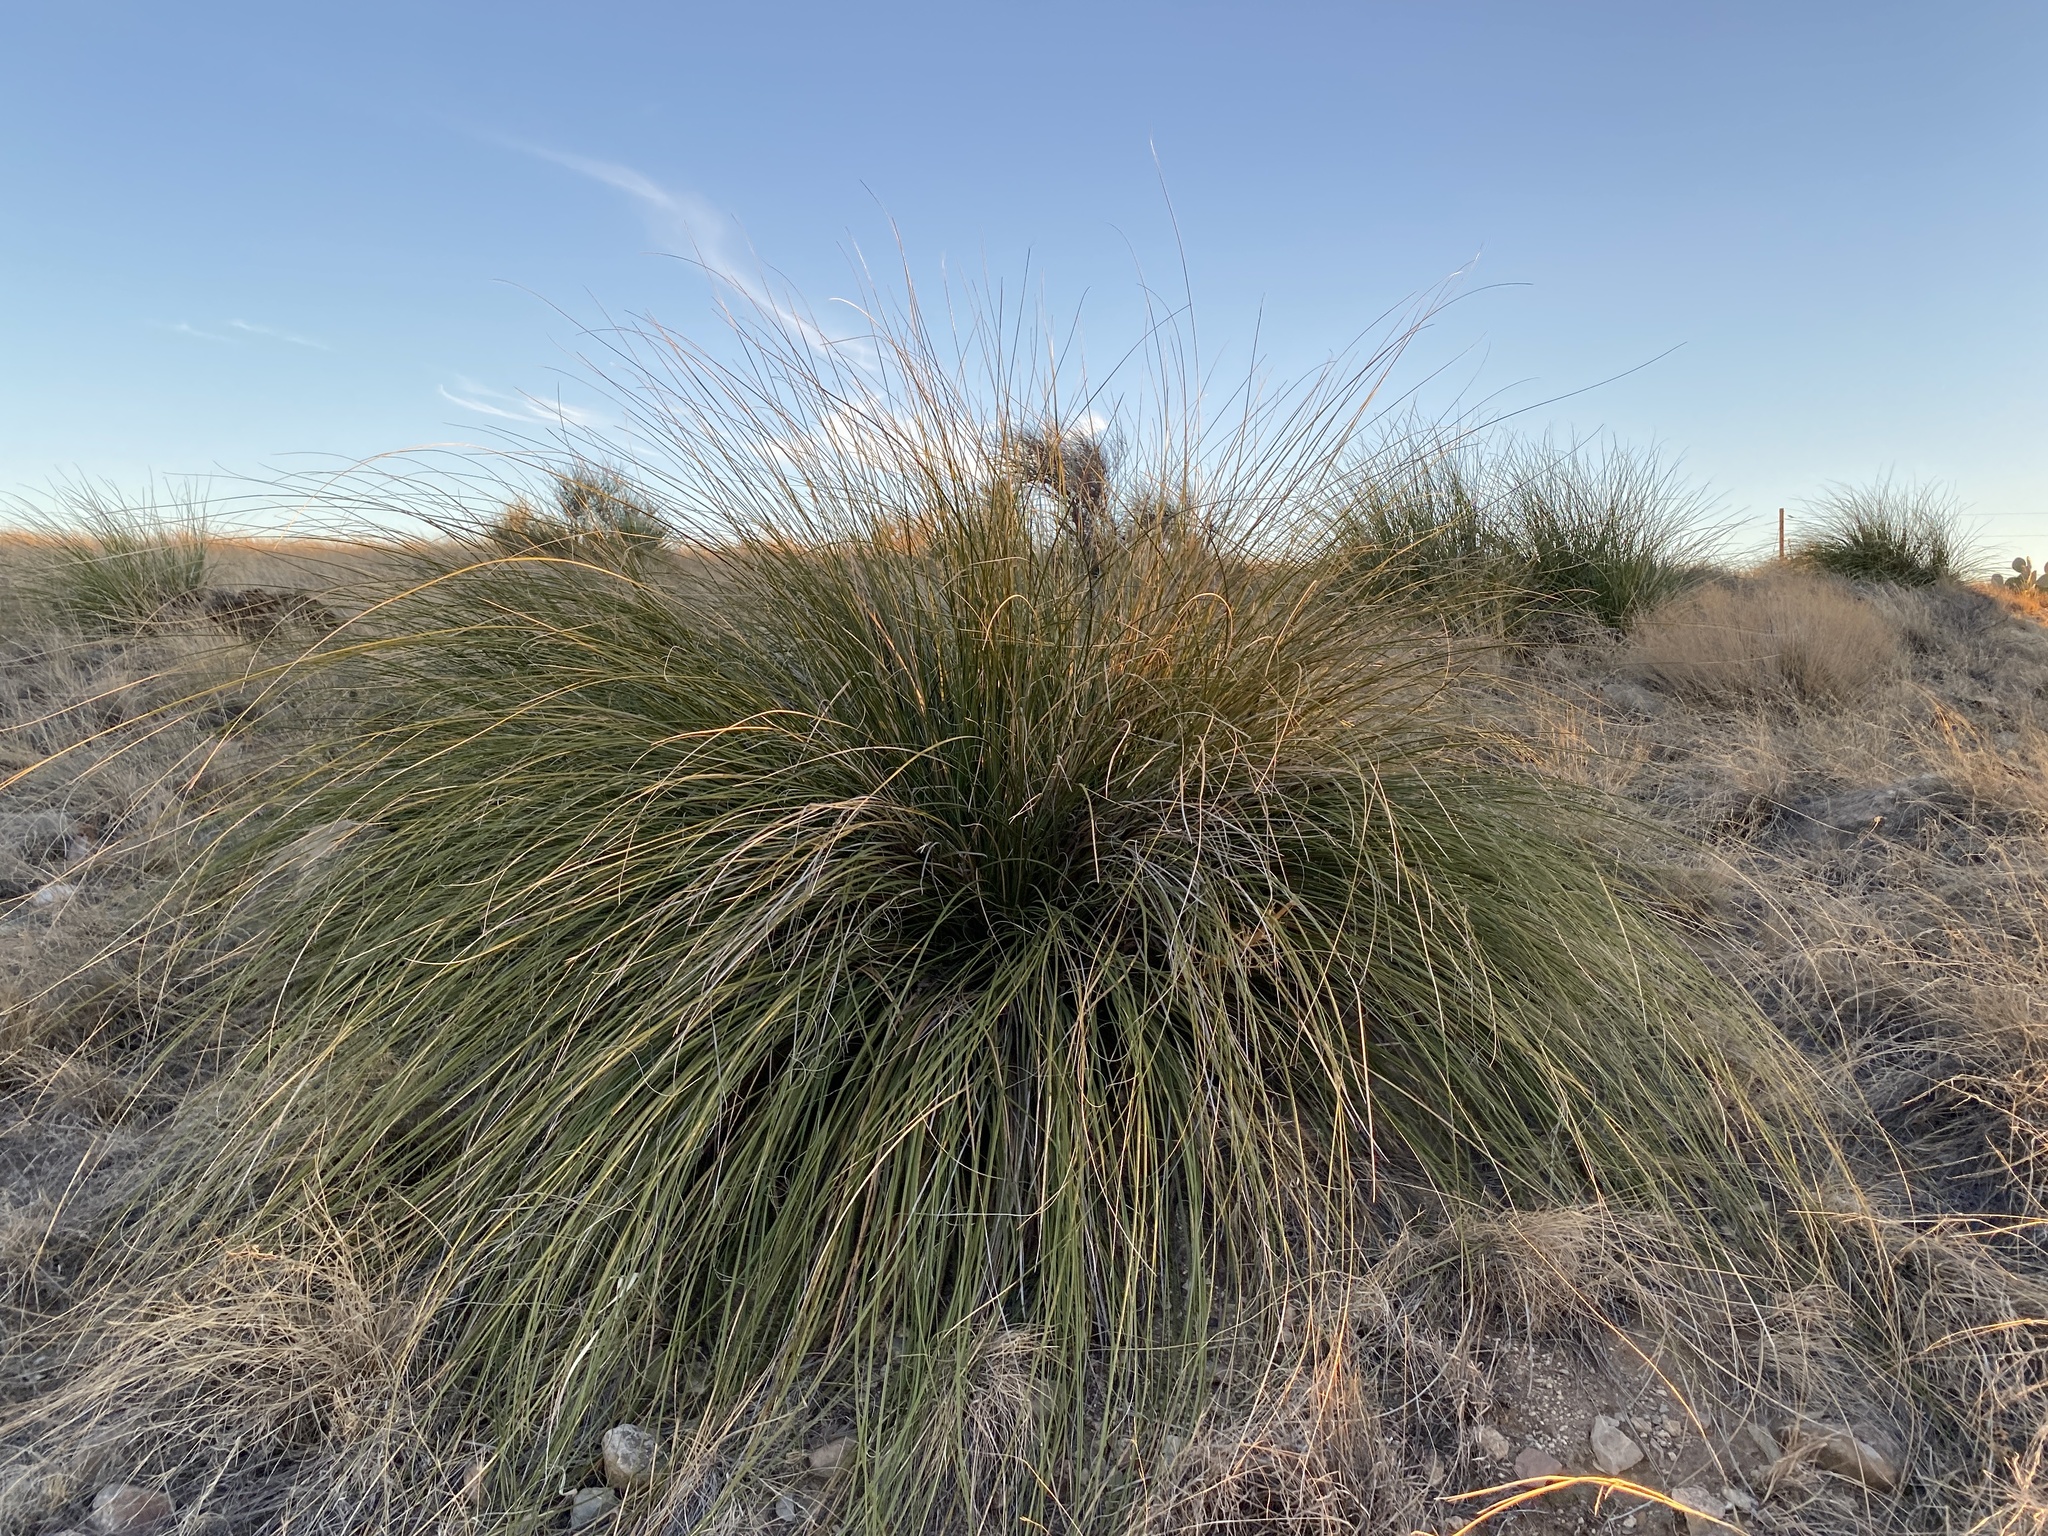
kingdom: Plantae
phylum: Tracheophyta
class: Liliopsida
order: Asparagales
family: Asparagaceae
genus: Nolina
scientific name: Nolina microcarpa
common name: Bear-grass
